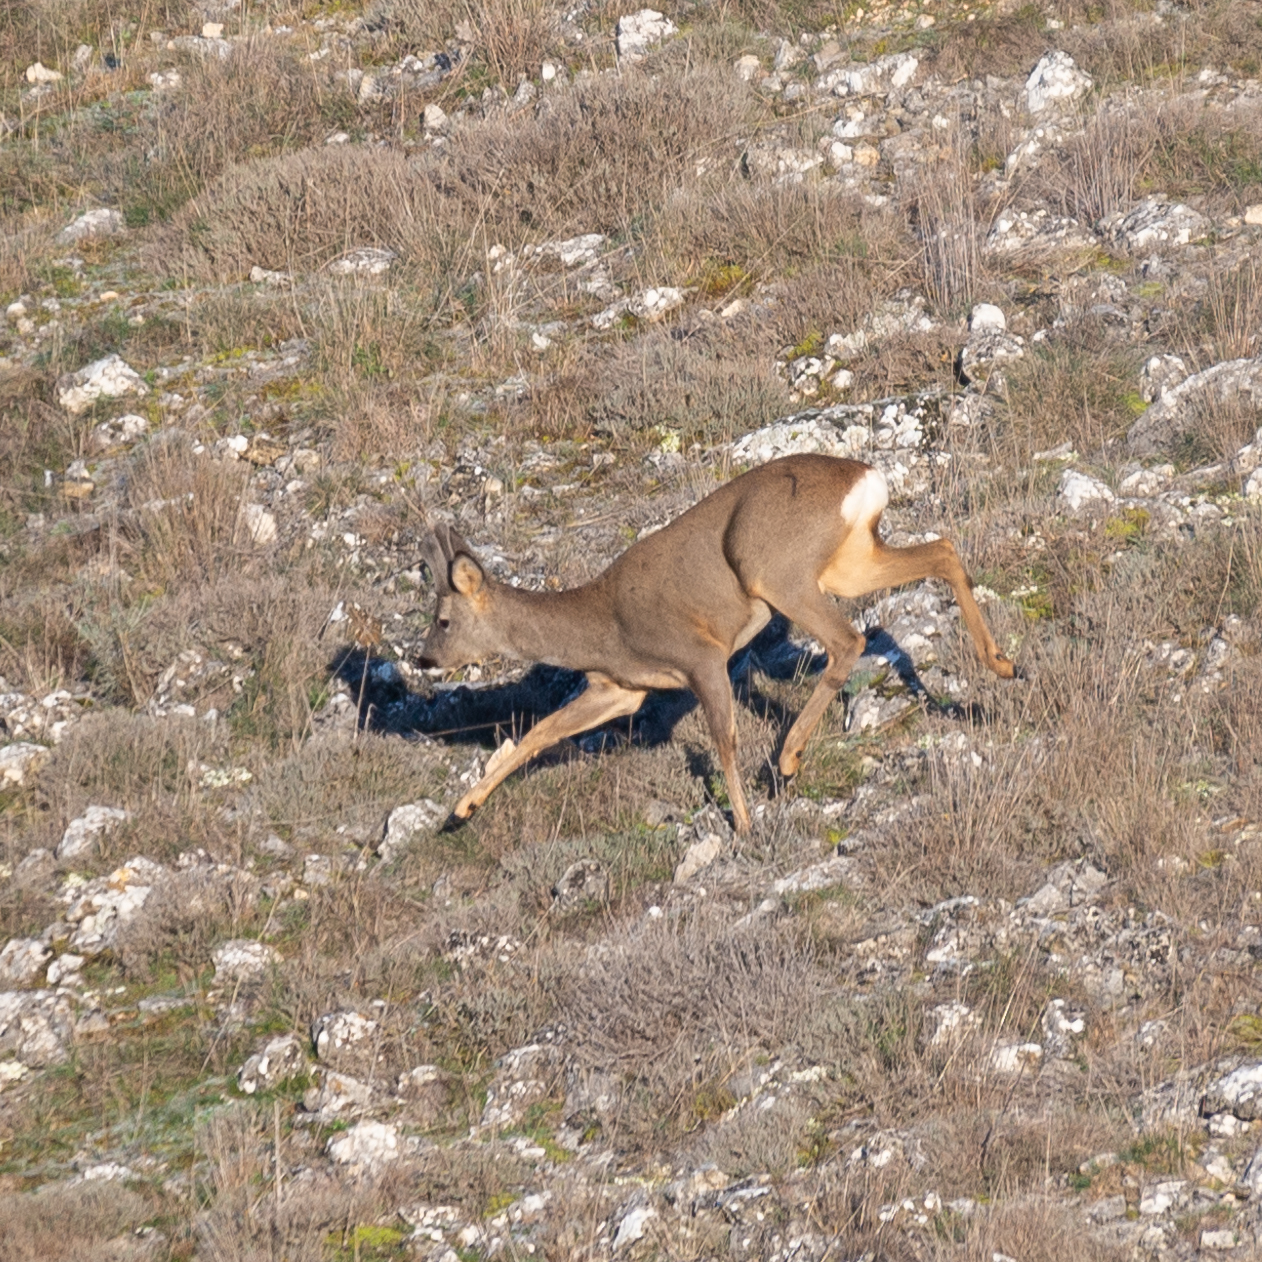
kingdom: Animalia
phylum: Chordata
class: Mammalia
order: Artiodactyla
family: Cervidae
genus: Capreolus
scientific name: Capreolus capreolus
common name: Western roe deer
